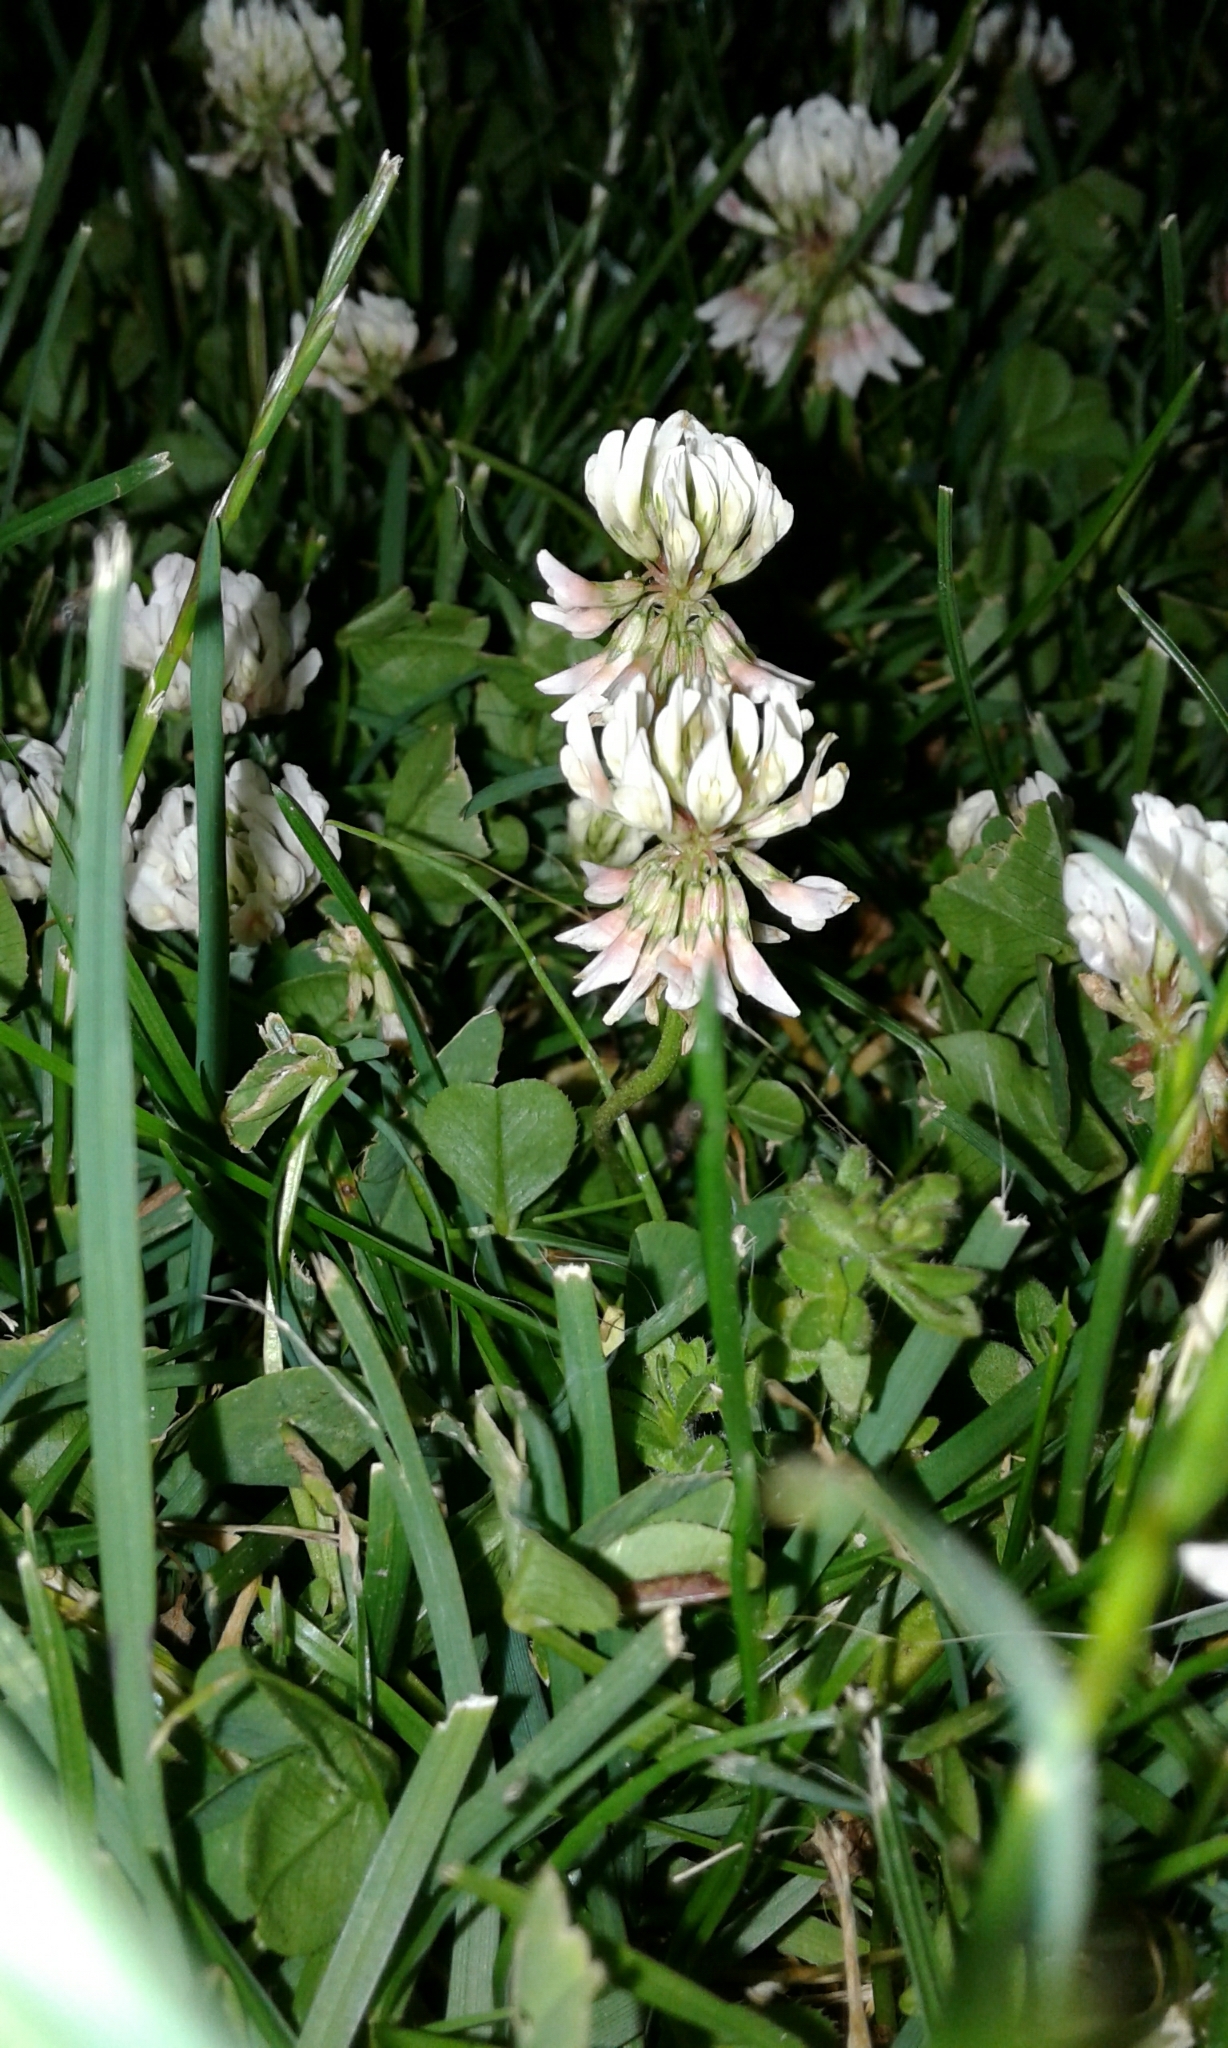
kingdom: Plantae
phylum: Tracheophyta
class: Magnoliopsida
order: Fabales
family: Fabaceae
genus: Trifolium
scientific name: Trifolium repens
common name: White clover
